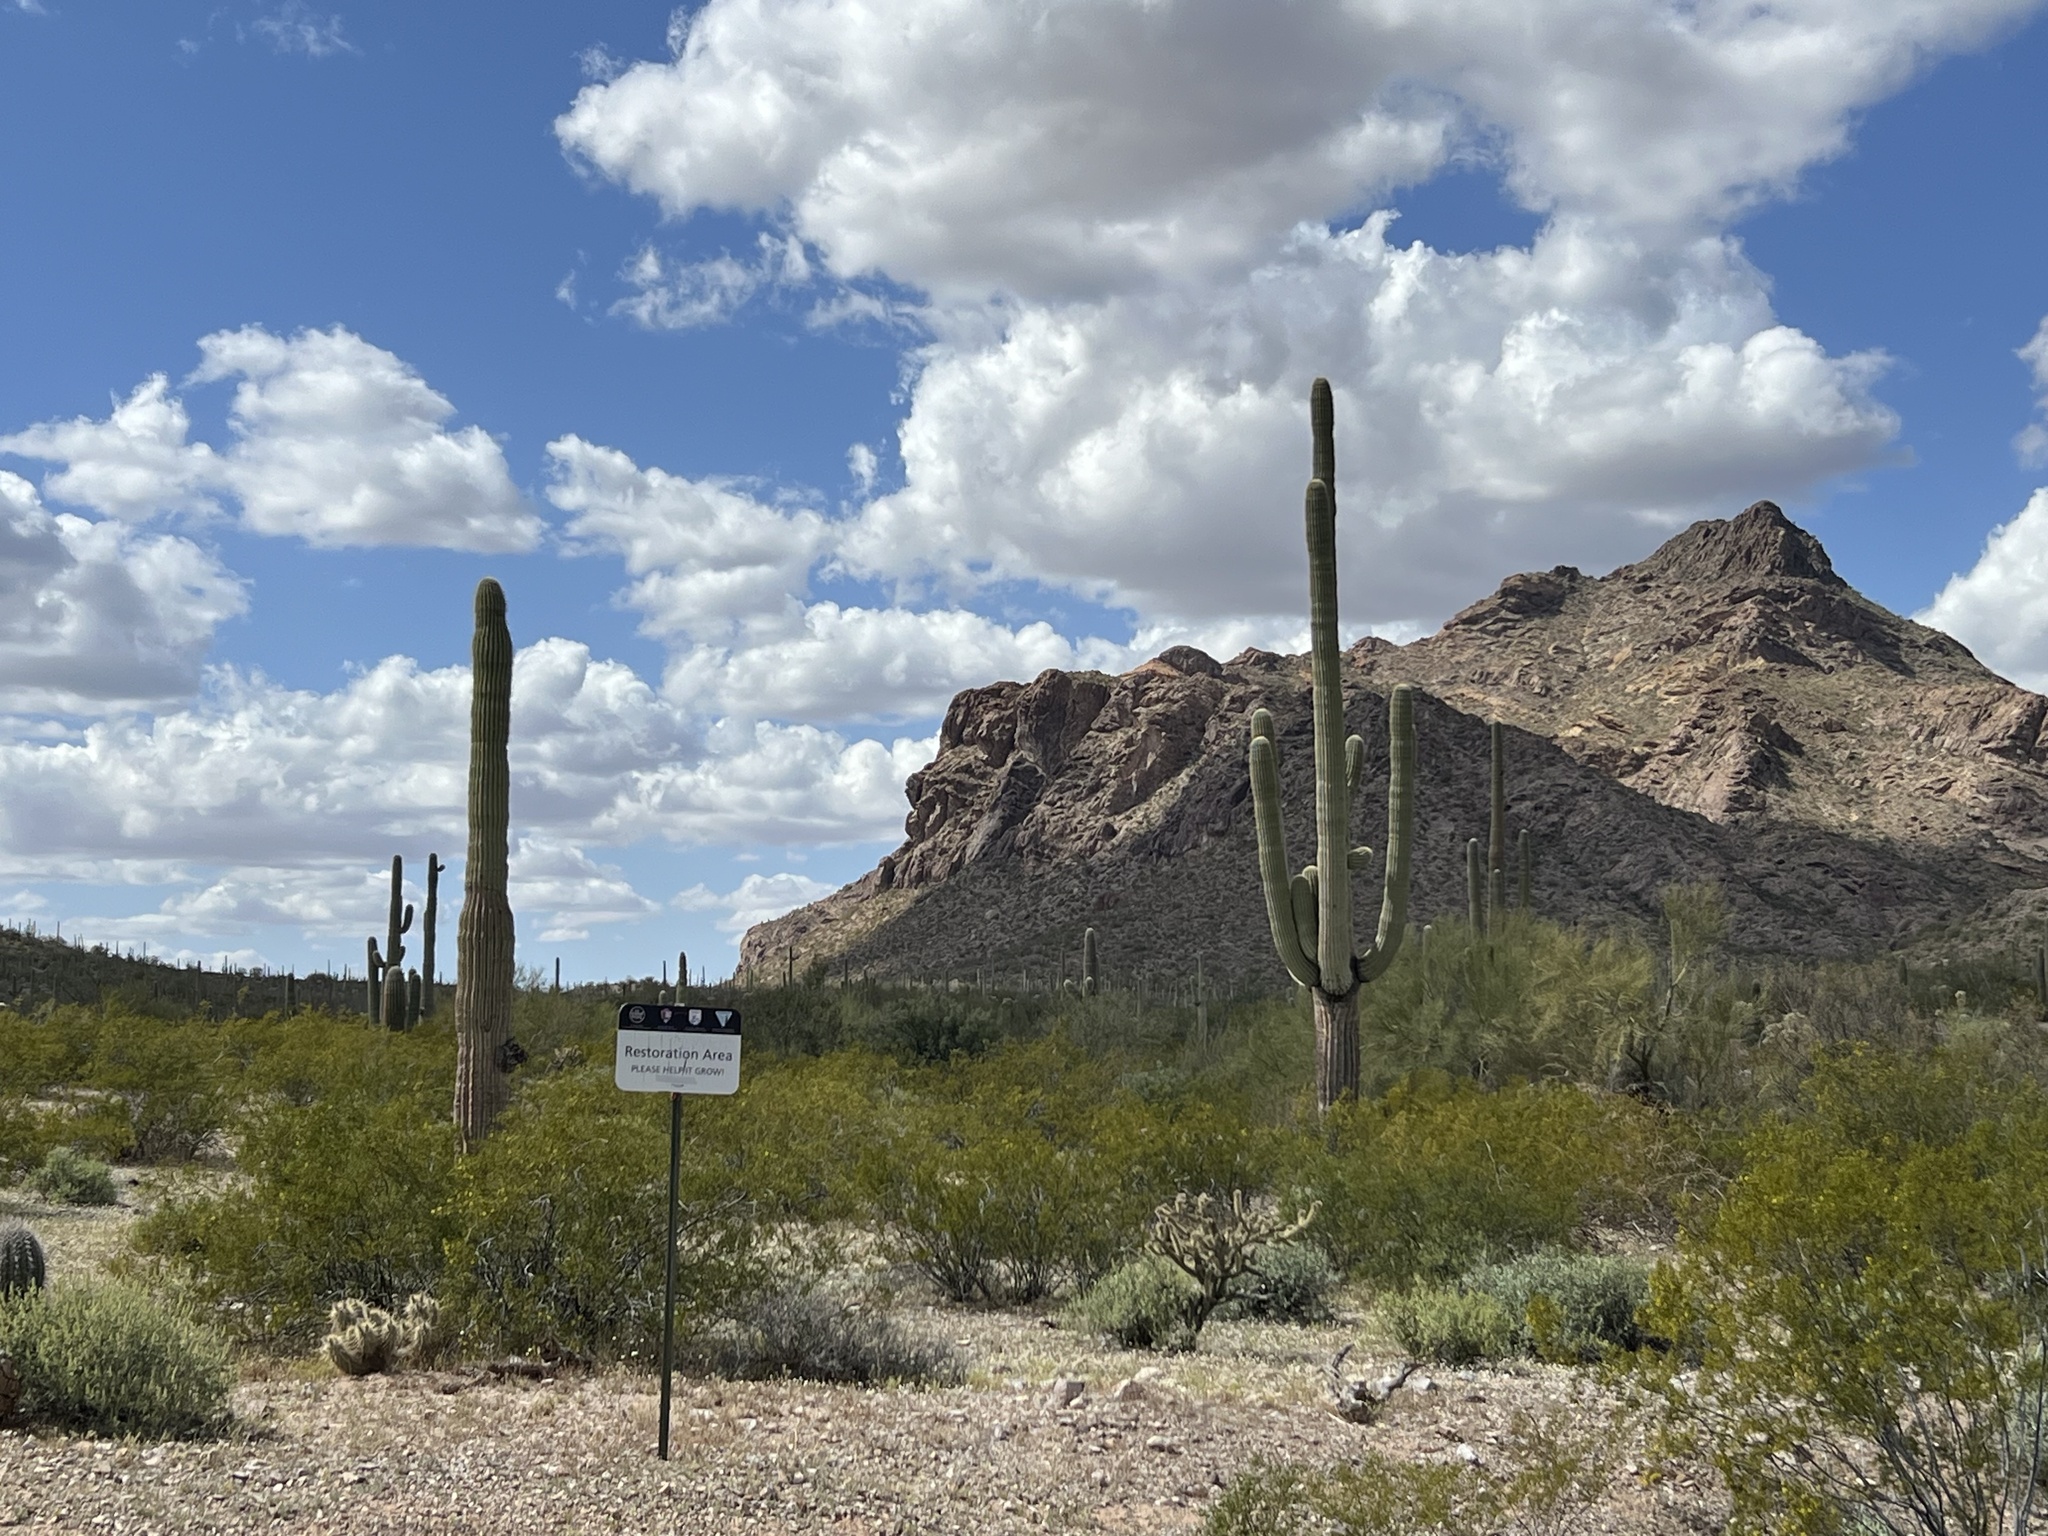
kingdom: Plantae
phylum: Tracheophyta
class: Magnoliopsida
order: Caryophyllales
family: Cactaceae
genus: Carnegiea
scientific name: Carnegiea gigantea
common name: Saguaro
